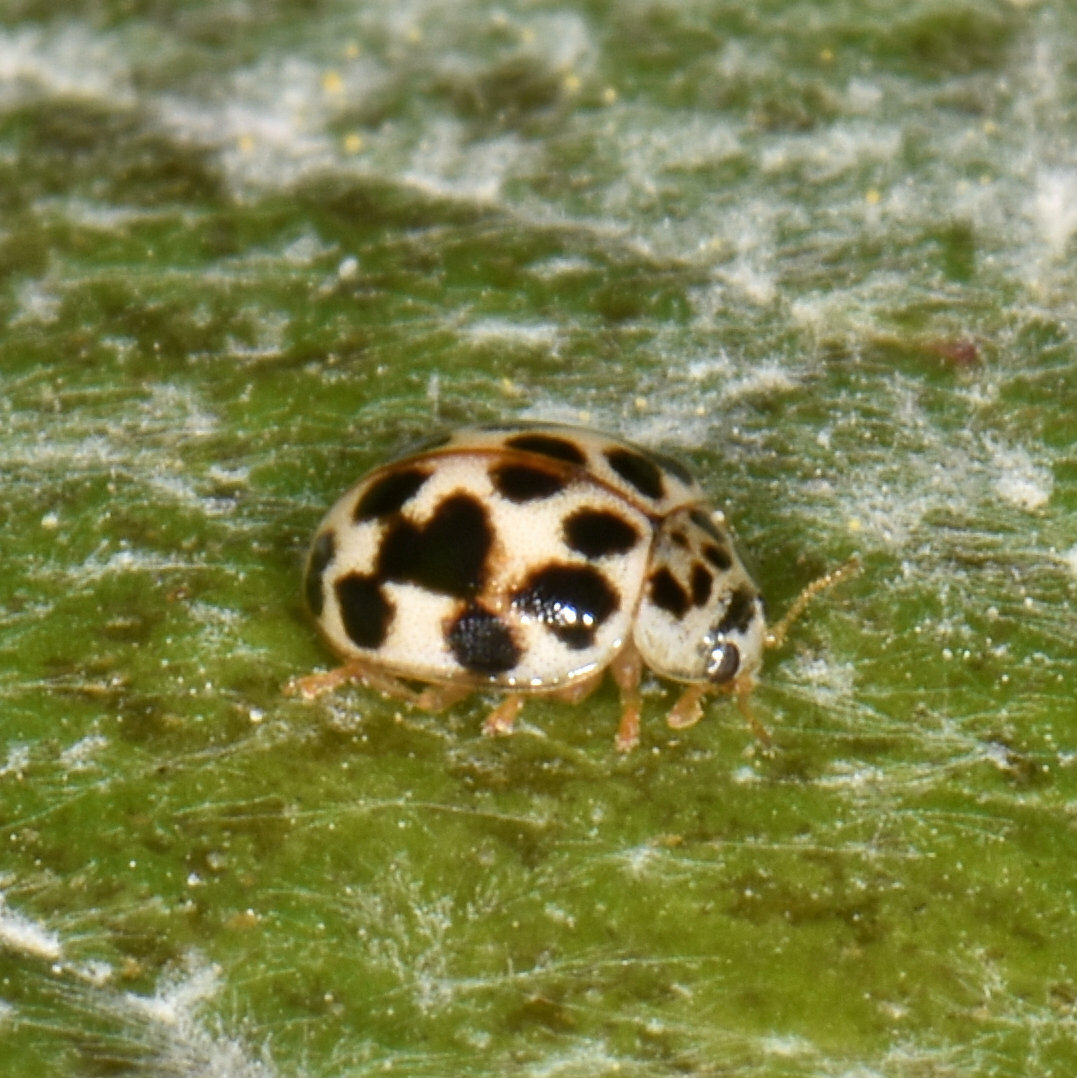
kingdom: Animalia
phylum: Arthropoda
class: Insecta
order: Coleoptera
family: Coccinellidae
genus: Psyllobora
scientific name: Psyllobora vigintimaculata
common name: Ladybird beetle
